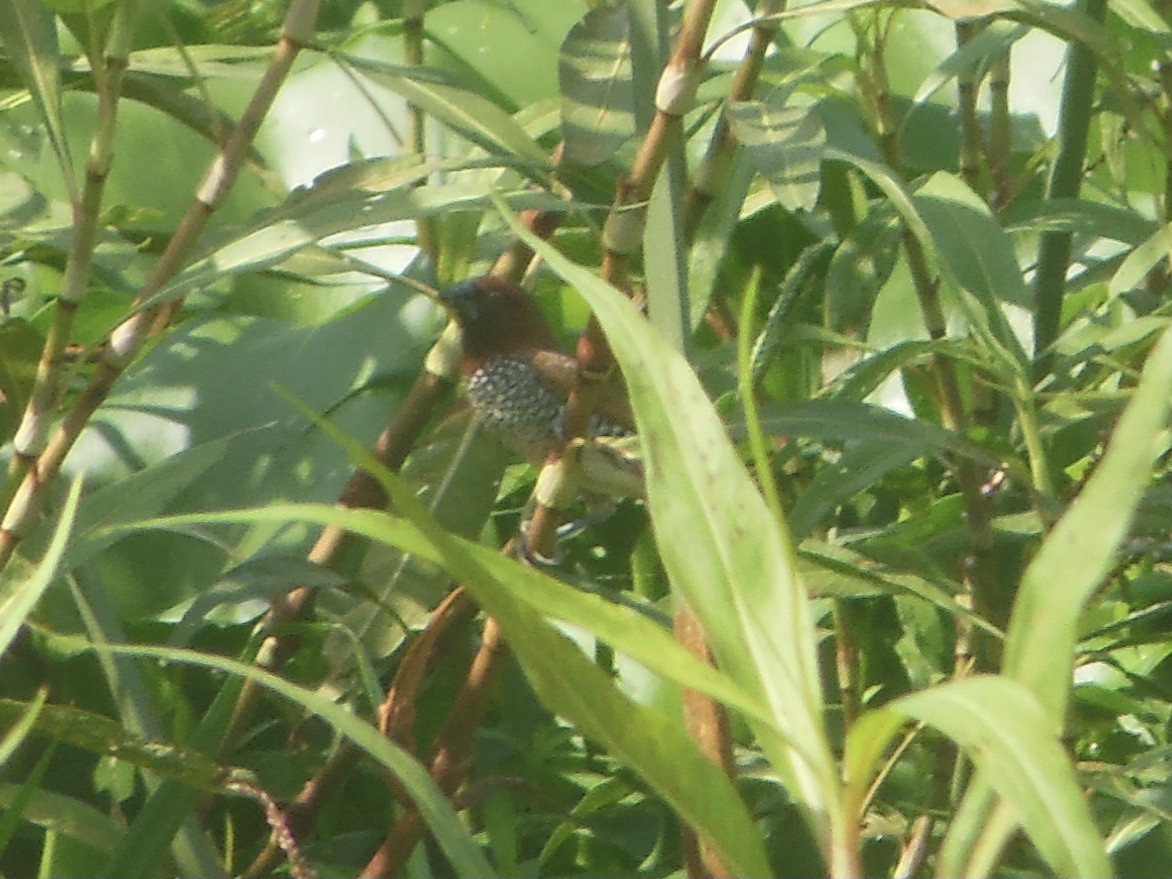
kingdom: Animalia
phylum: Chordata
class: Aves
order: Passeriformes
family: Estrildidae
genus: Lonchura
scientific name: Lonchura punctulata
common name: Scaly-breasted munia
